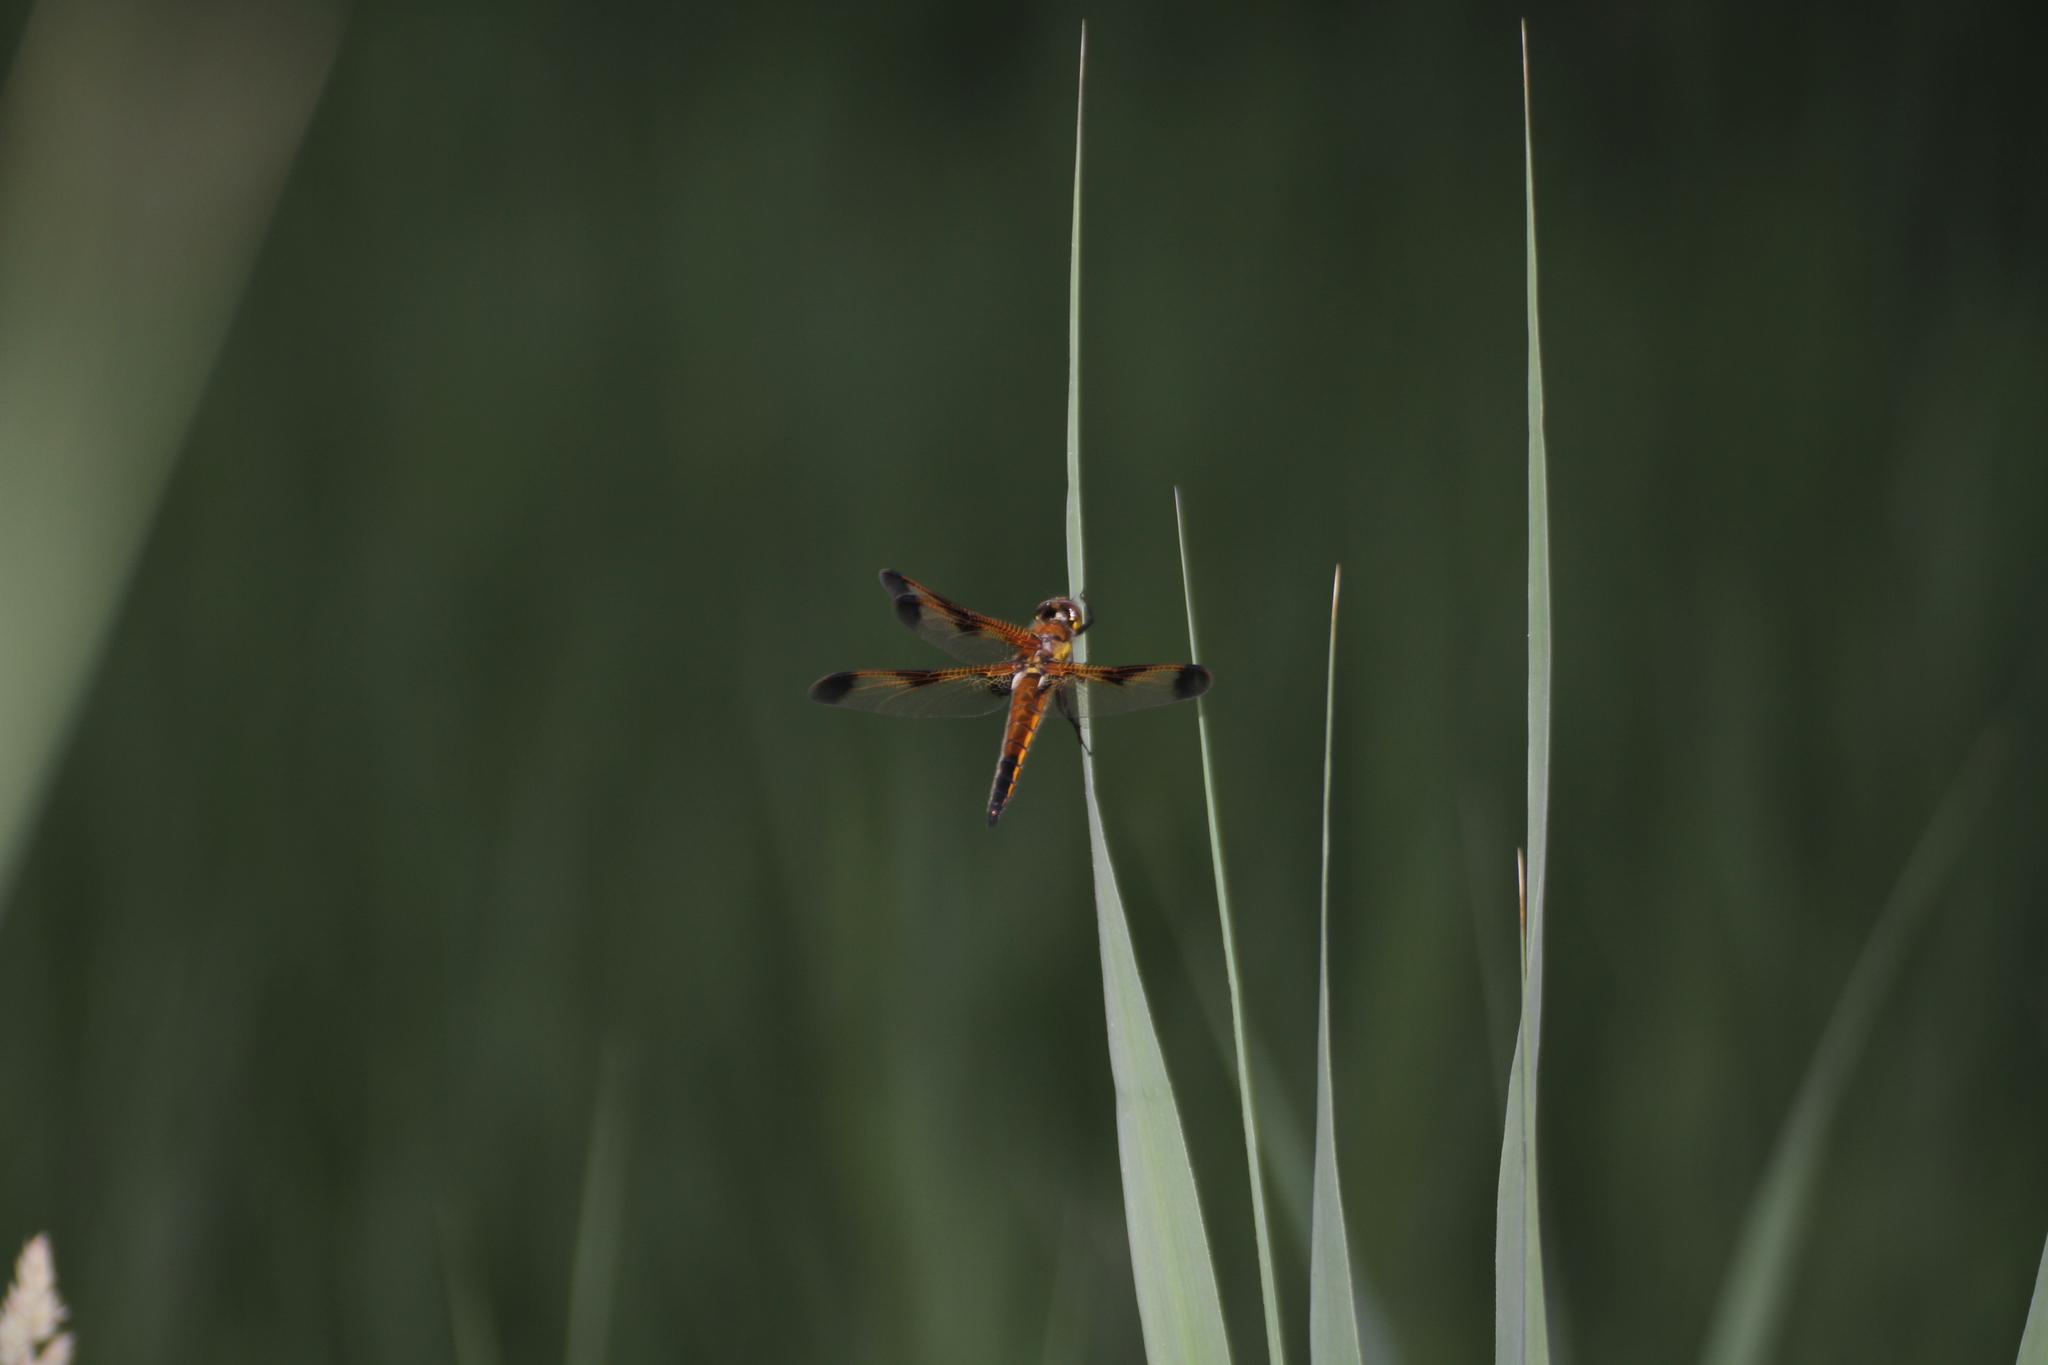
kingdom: Animalia
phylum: Arthropoda
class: Insecta
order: Odonata
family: Libellulidae
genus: Libellula
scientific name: Libellula quadrimaculata
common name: Four-spotted chaser
